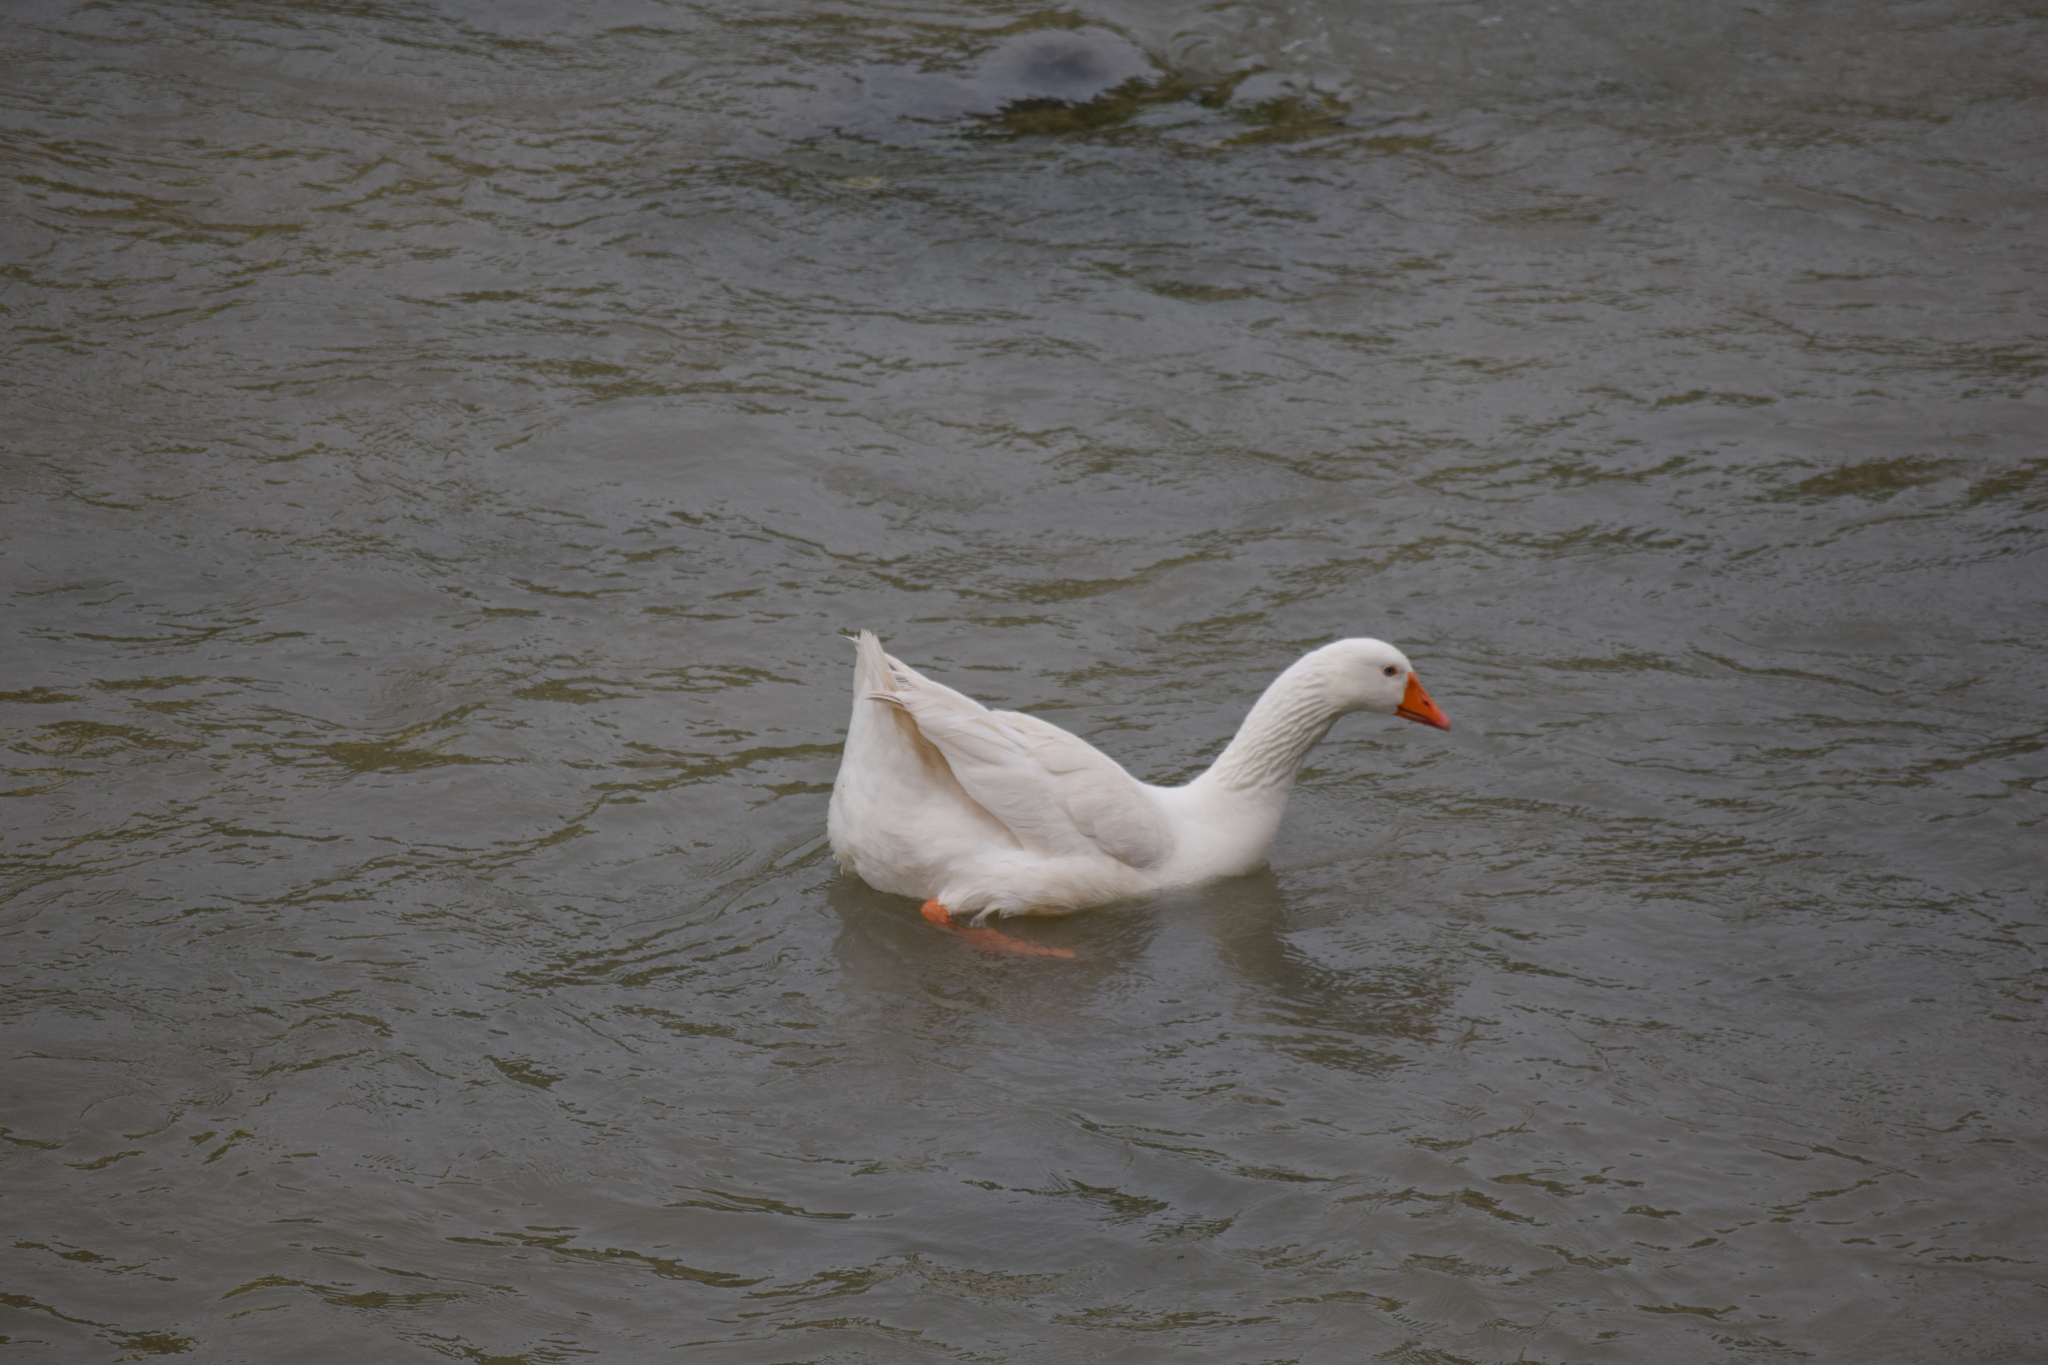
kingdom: Animalia
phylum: Chordata
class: Aves
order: Anseriformes
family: Anatidae
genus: Anser
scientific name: Anser anser
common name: Greylag goose
